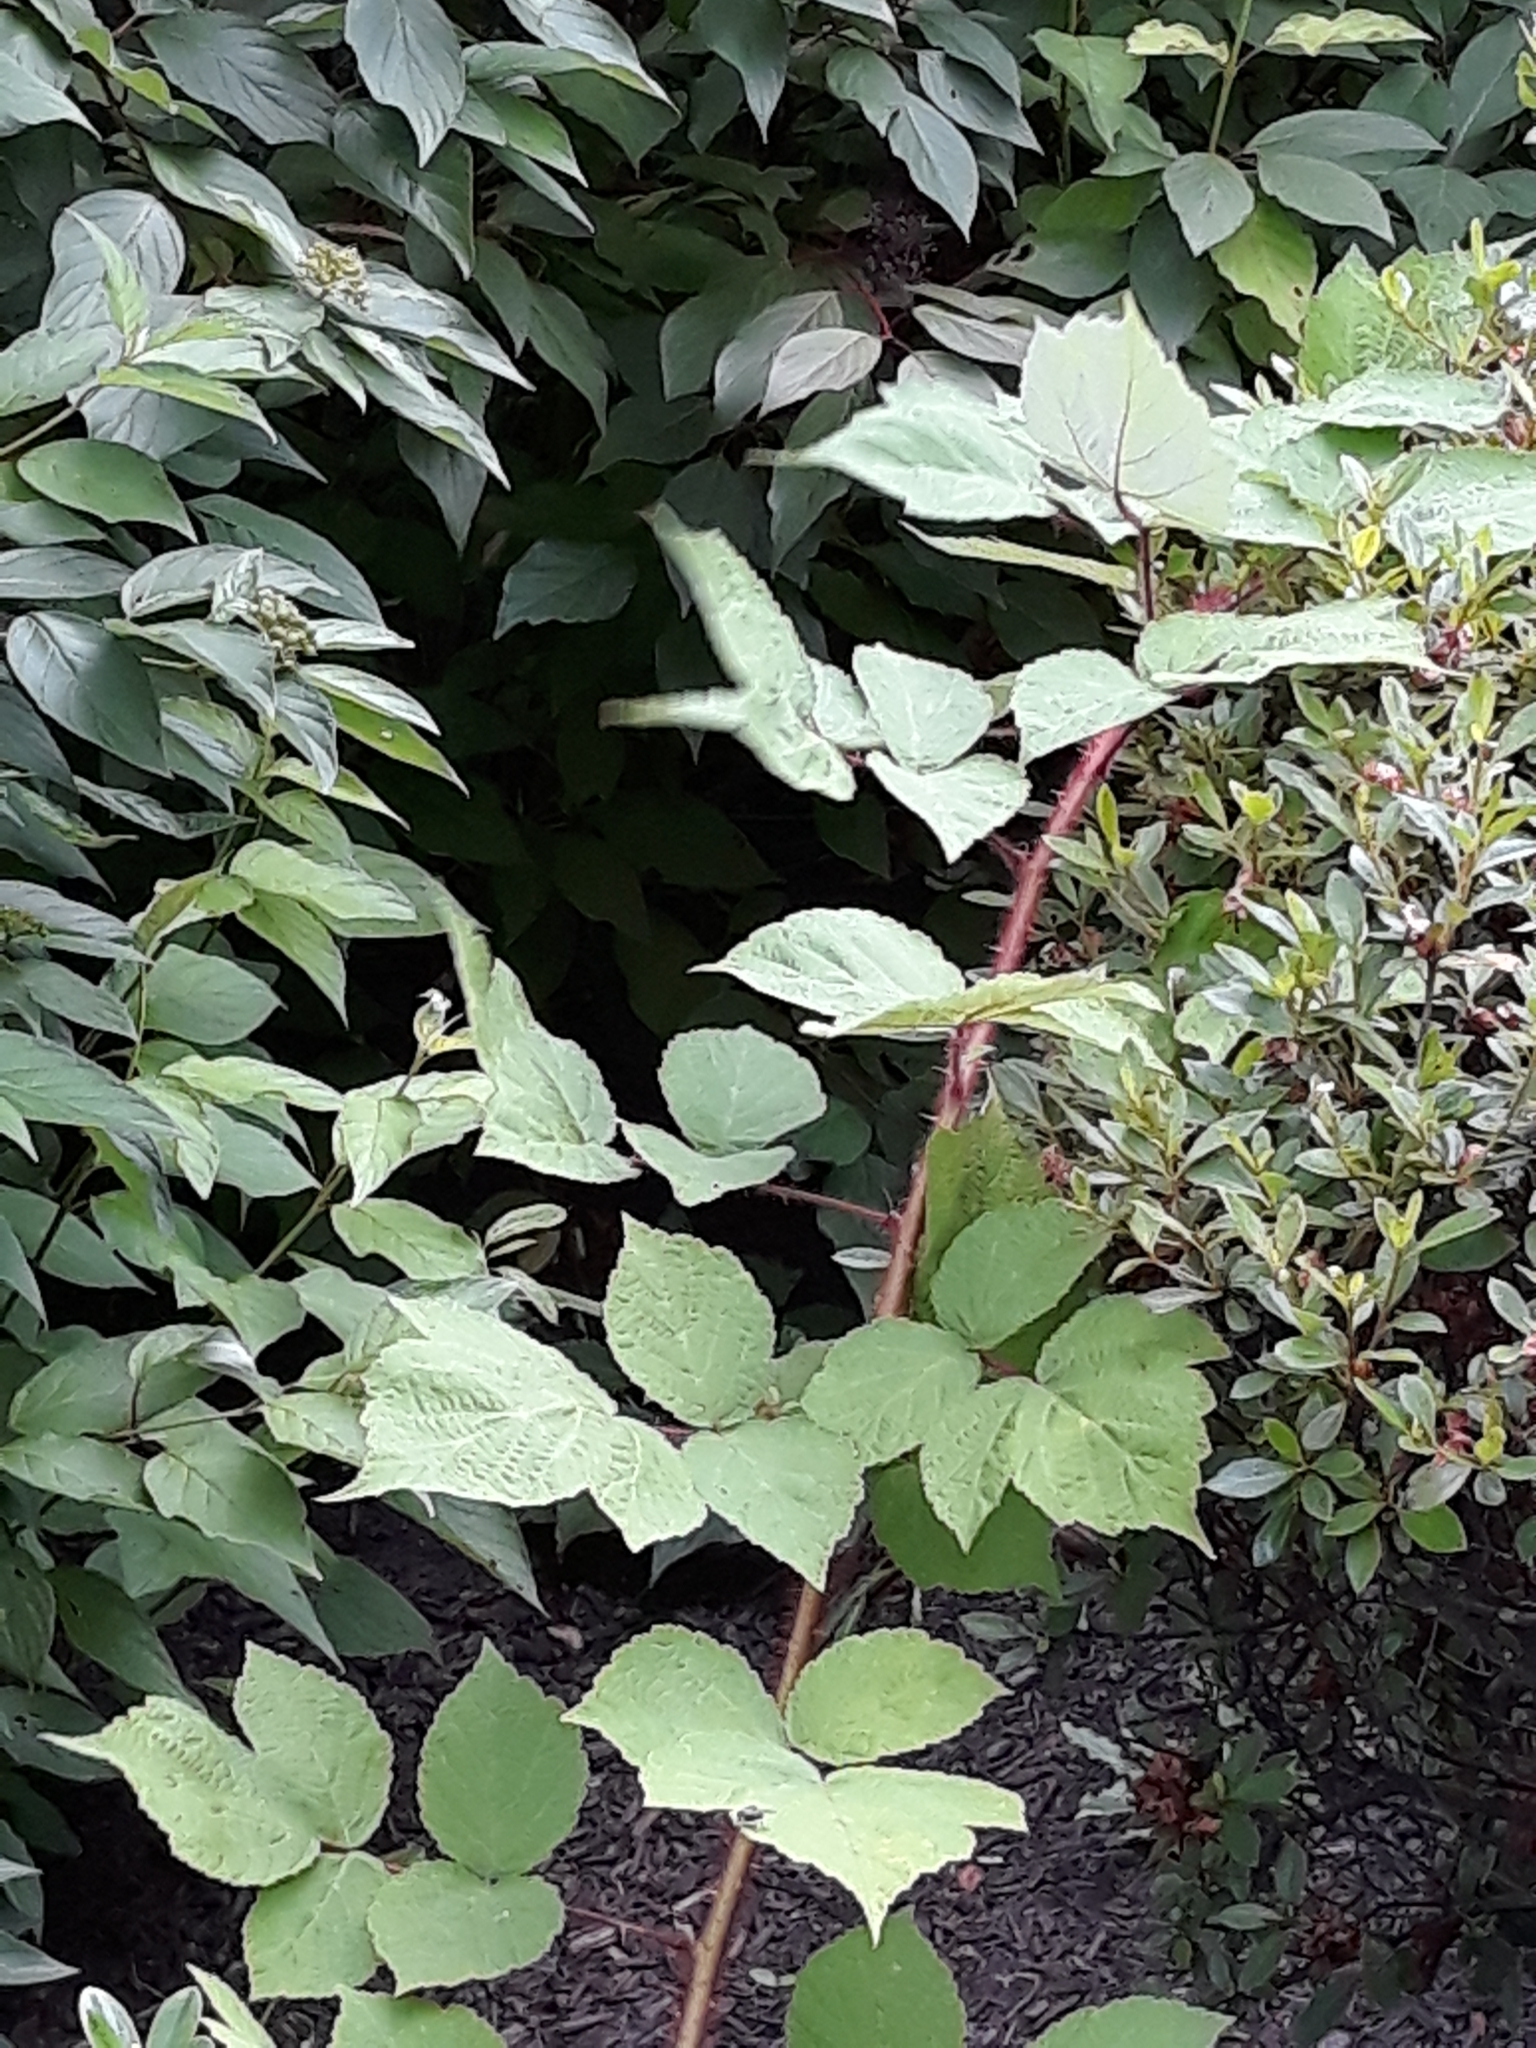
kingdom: Plantae
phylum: Tracheophyta
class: Magnoliopsida
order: Rosales
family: Rosaceae
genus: Rubus
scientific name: Rubus phoenicolasius
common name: Japanese wineberry
